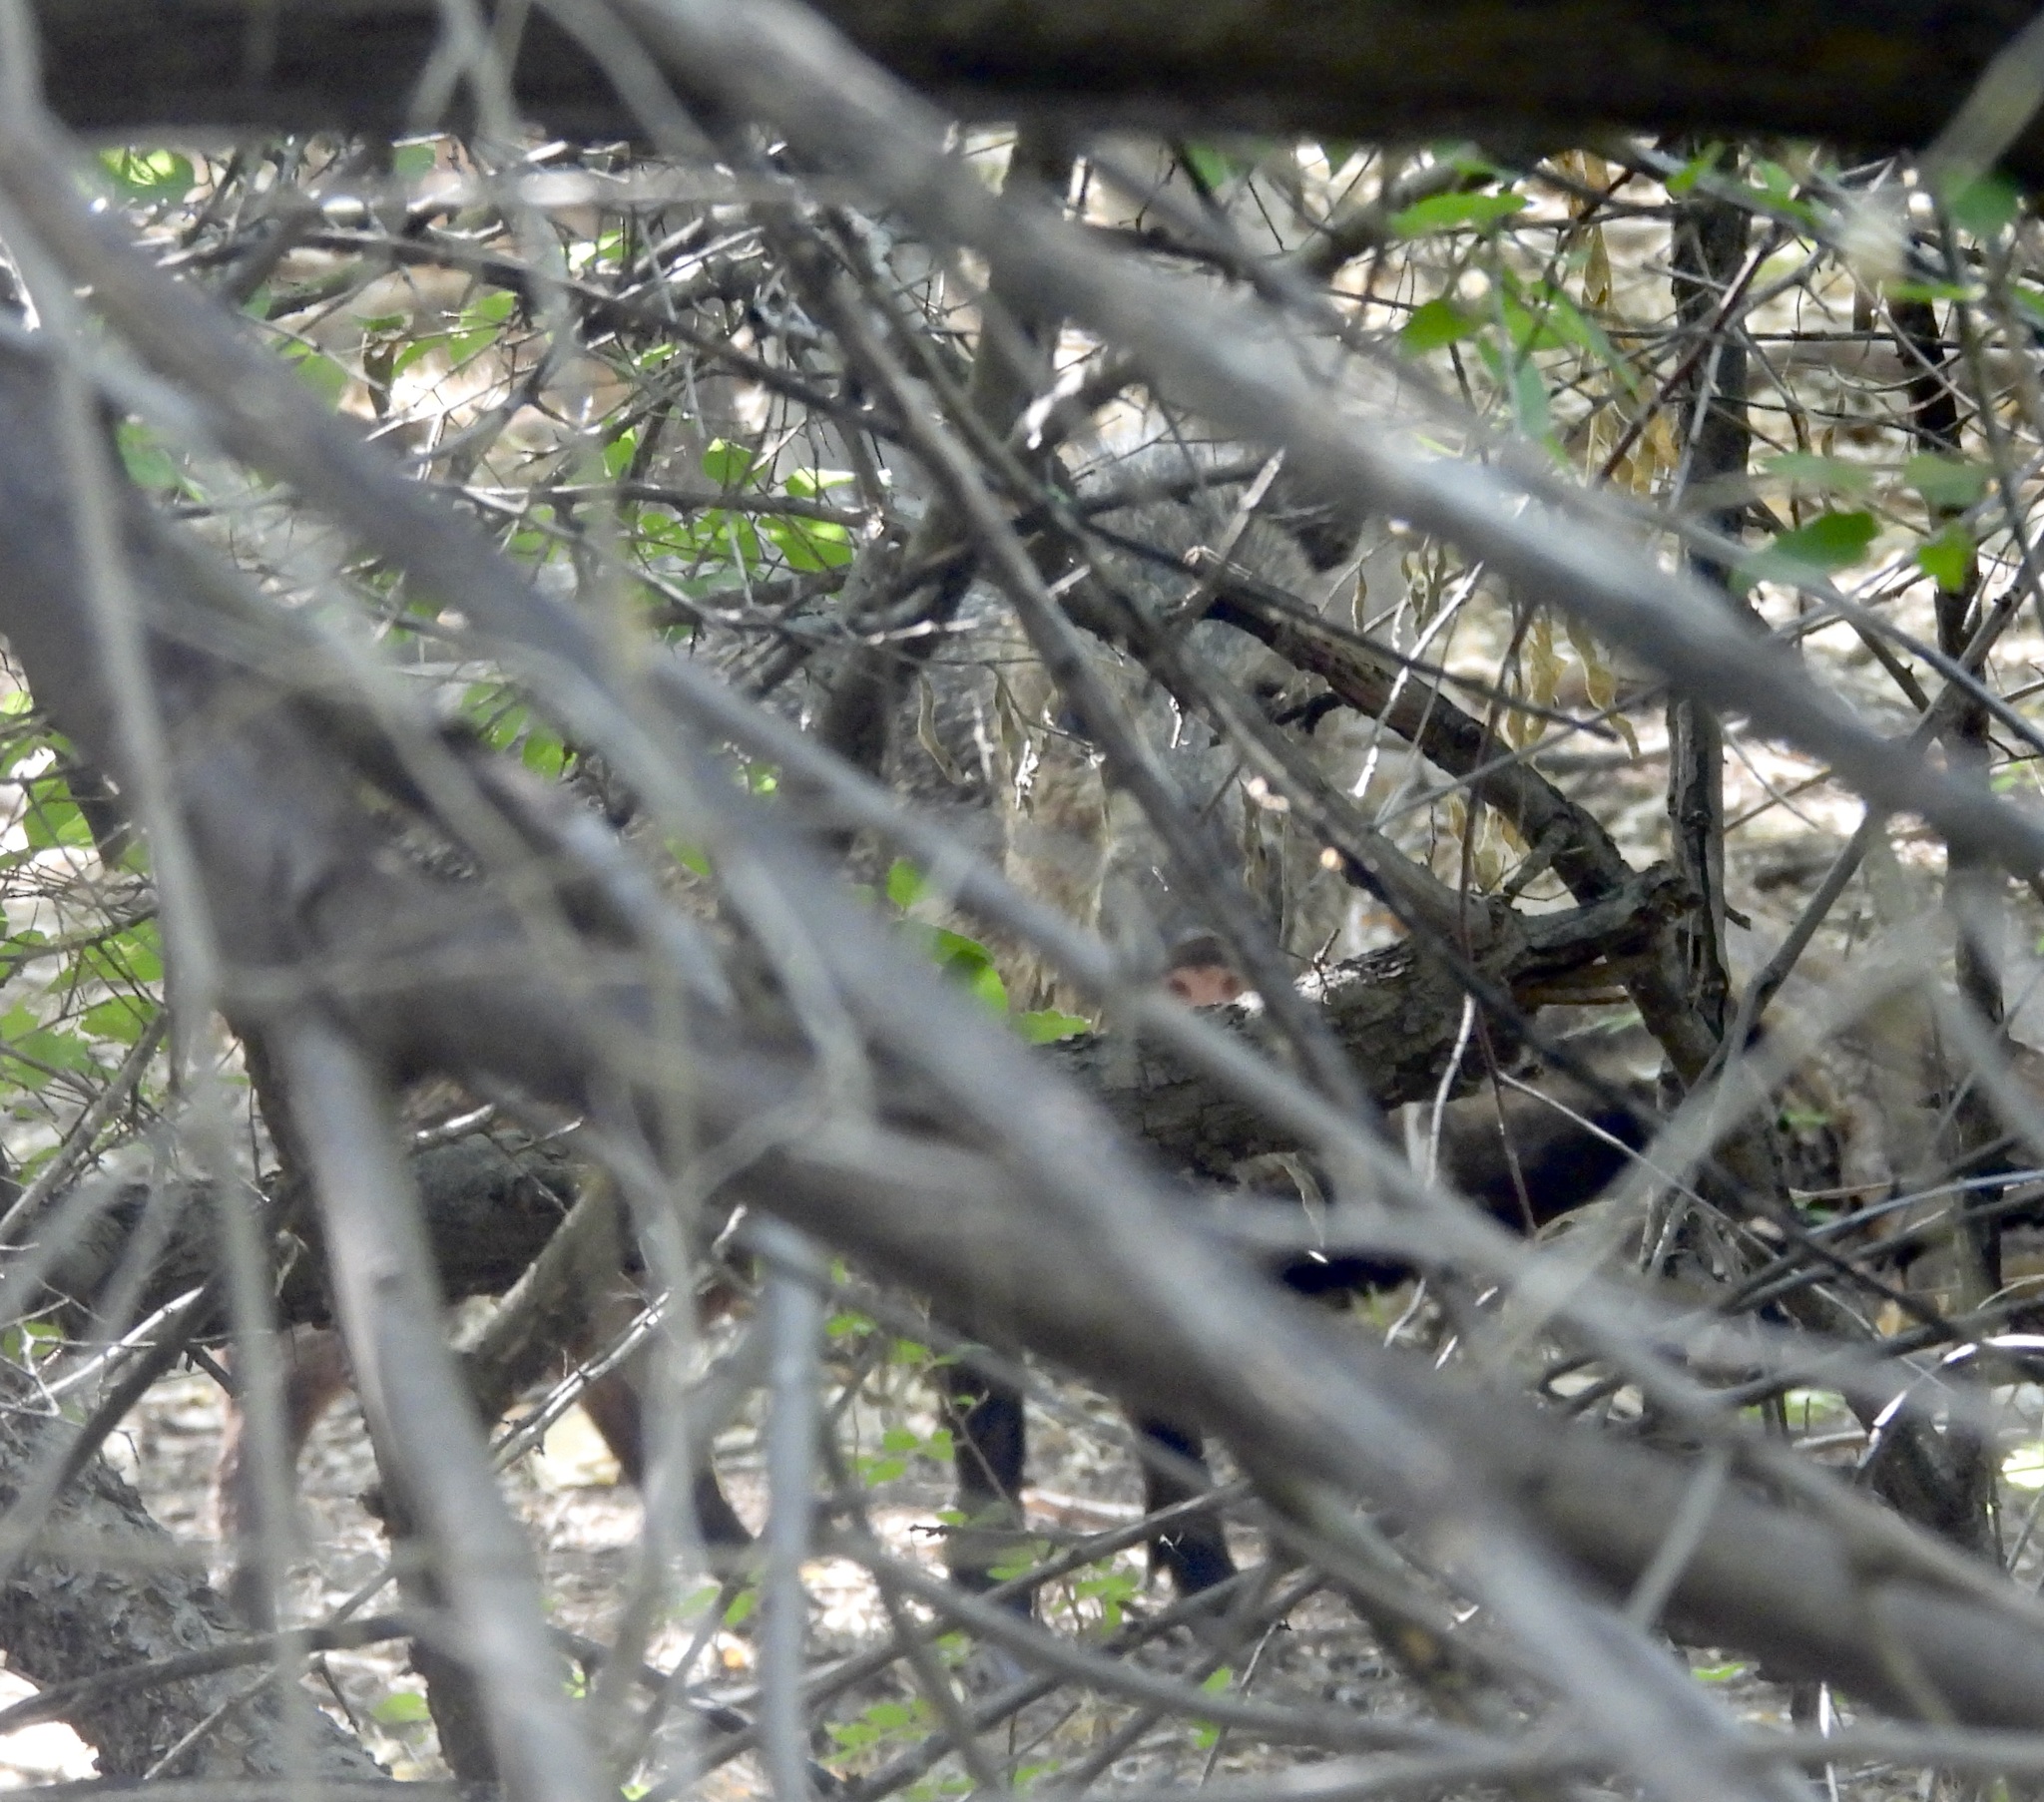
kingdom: Animalia
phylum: Chordata
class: Mammalia
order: Artiodactyla
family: Tayassuidae
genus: Pecari
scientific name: Pecari tajacu
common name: Collared peccary
